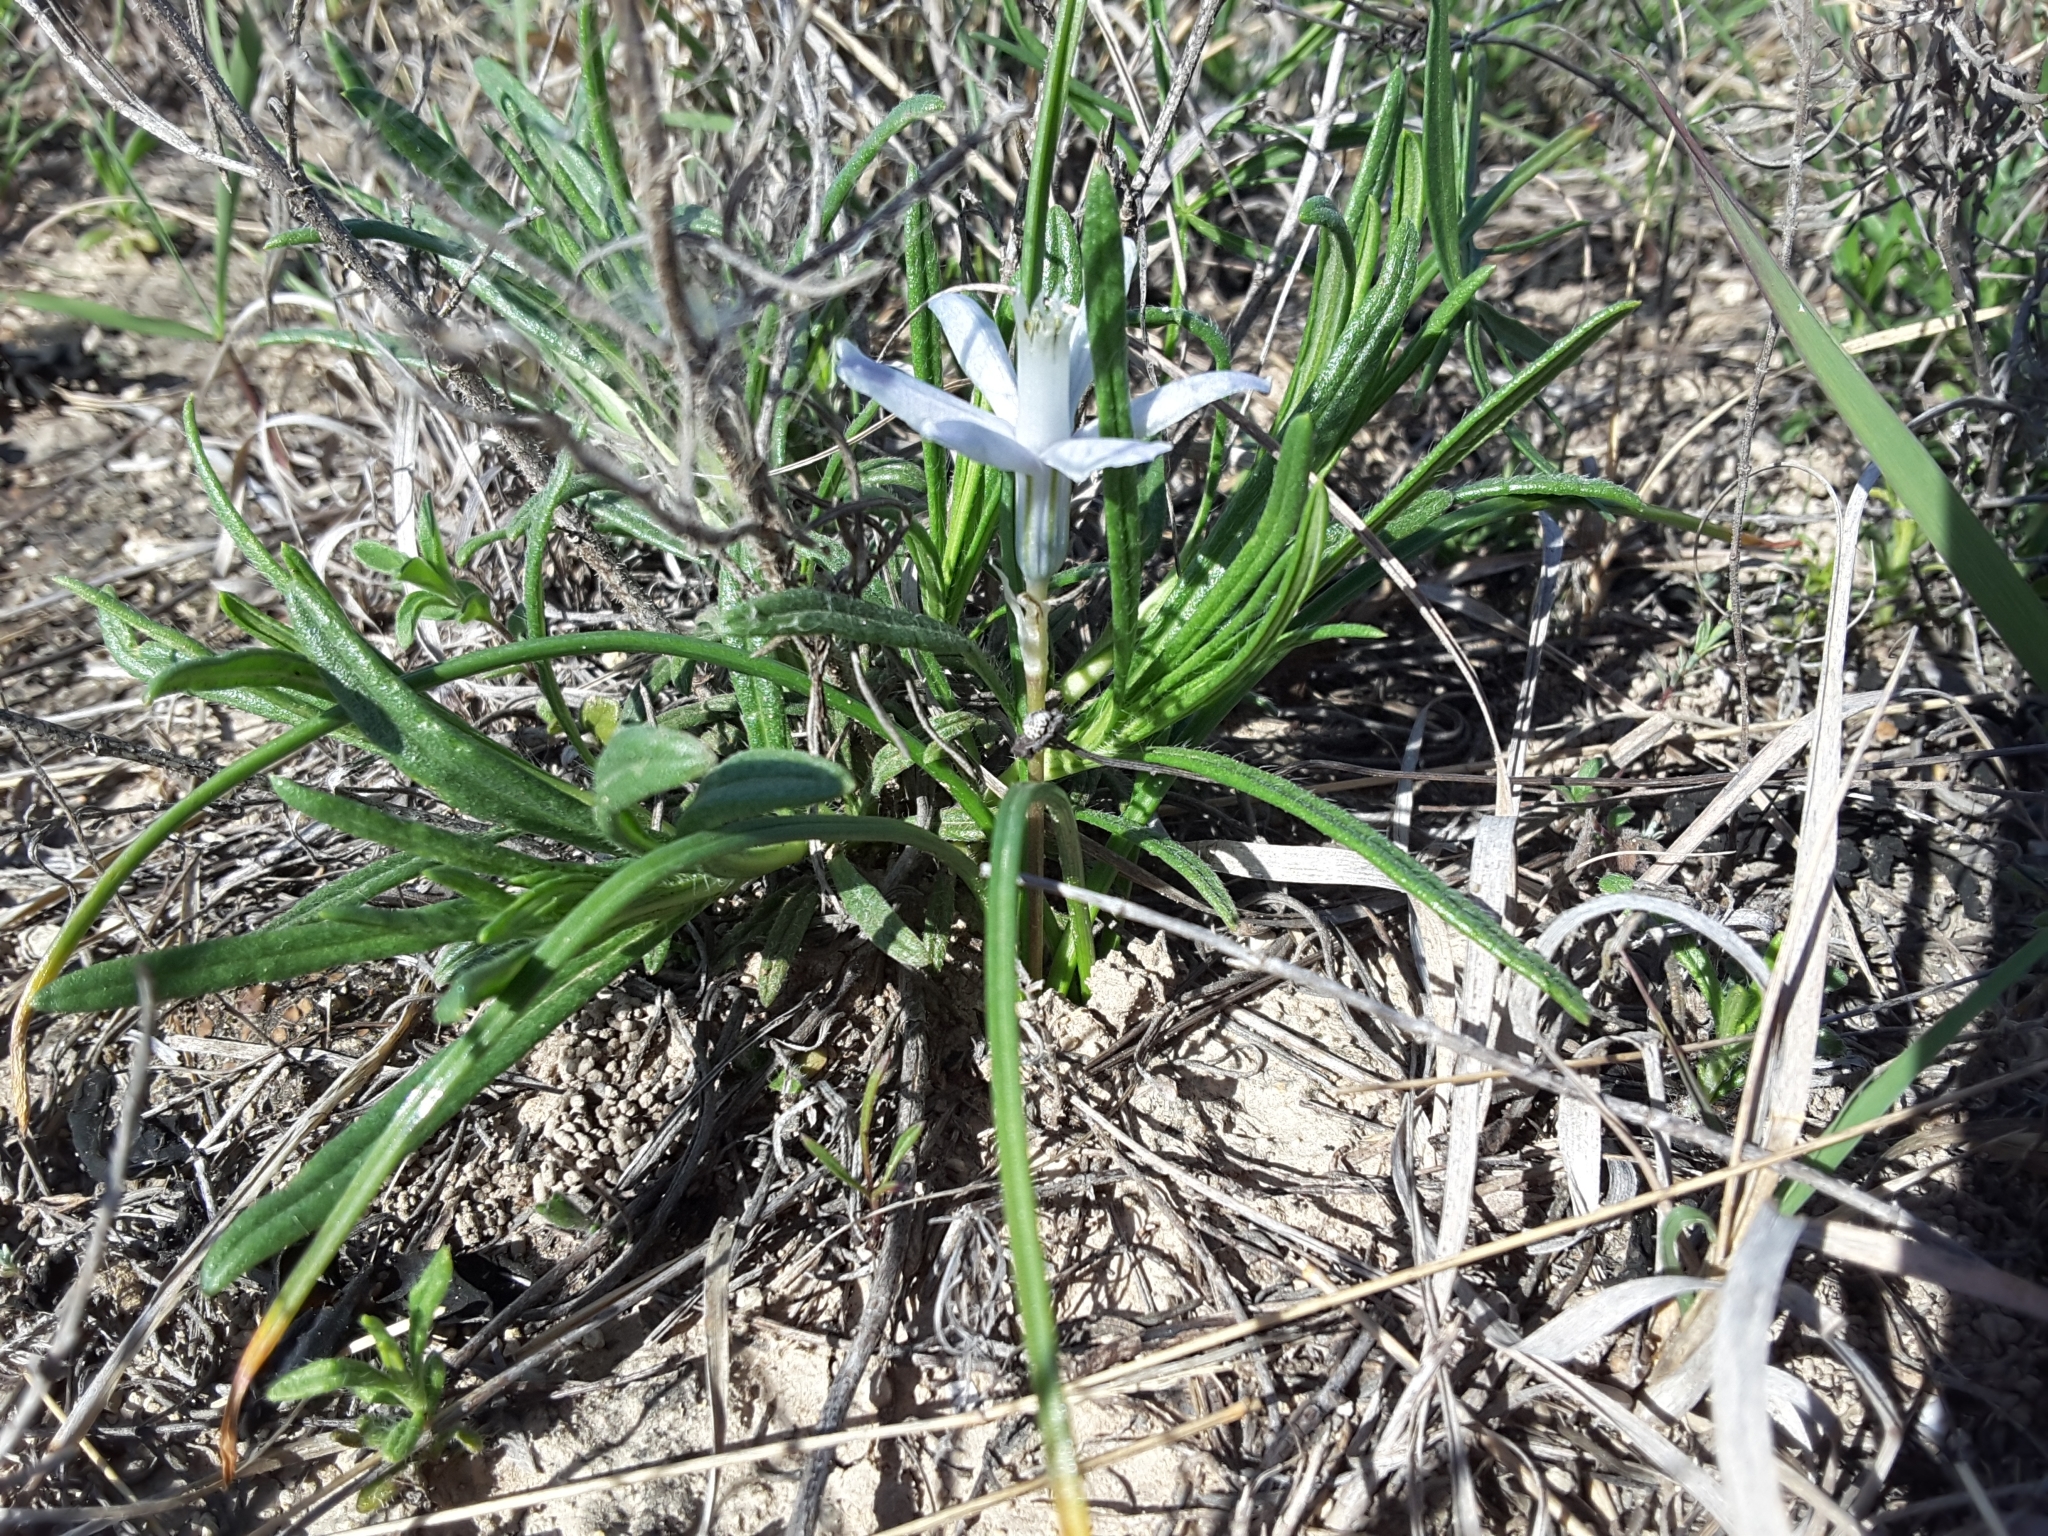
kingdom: Plantae
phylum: Tracheophyta
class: Liliopsida
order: Asparagales
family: Asparagaceae
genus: Androstephium
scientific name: Androstephium coeruleum
